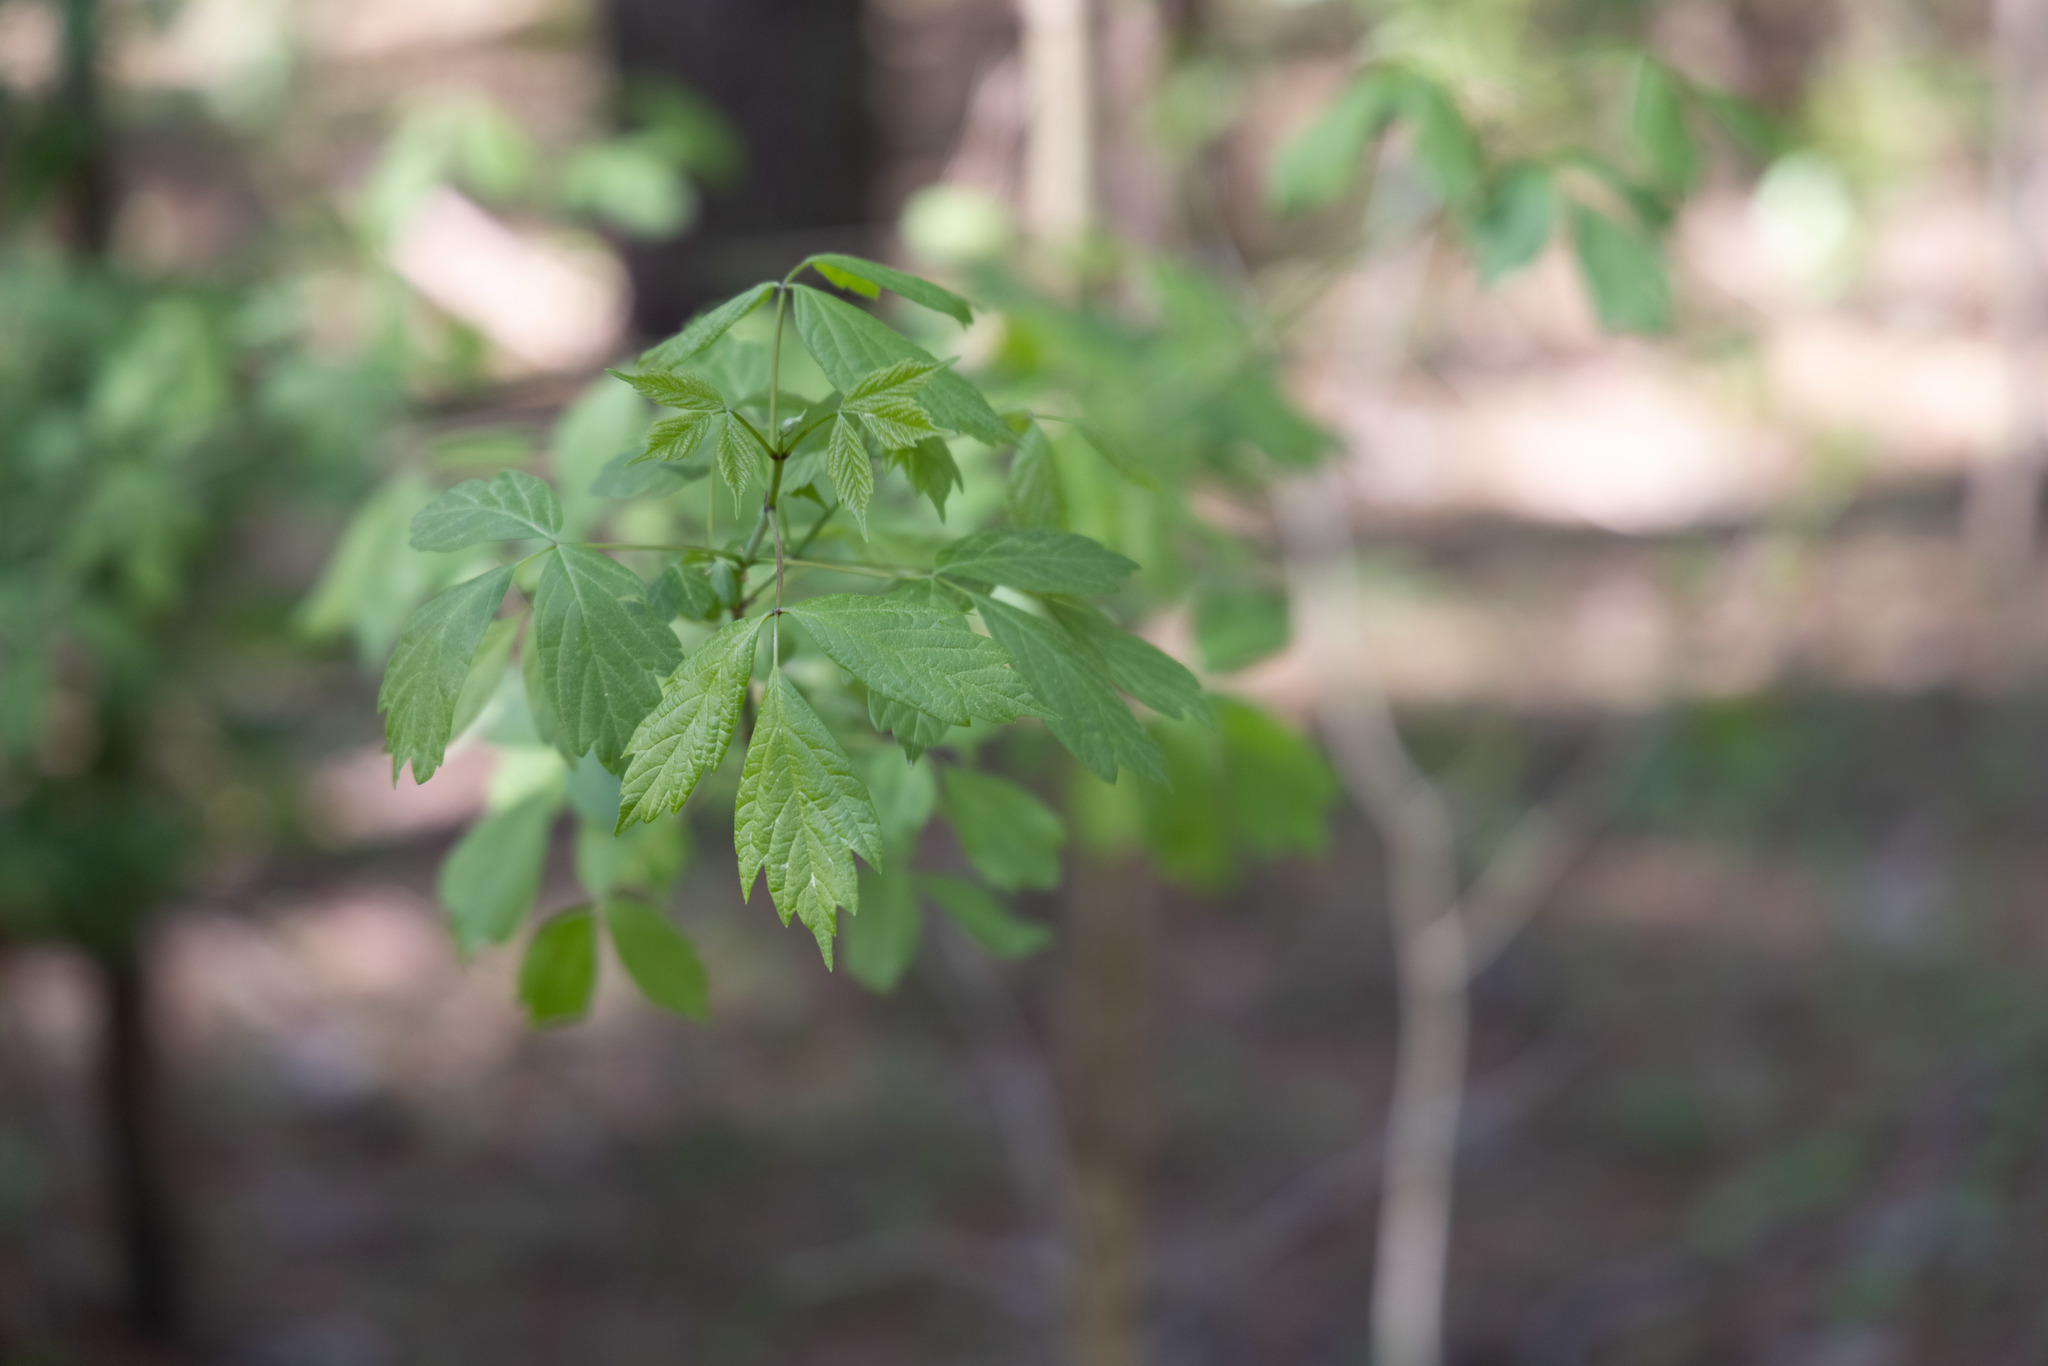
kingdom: Plantae
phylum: Tracheophyta
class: Magnoliopsida
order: Sapindales
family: Sapindaceae
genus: Acer
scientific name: Acer negundo
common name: Ashleaf maple
